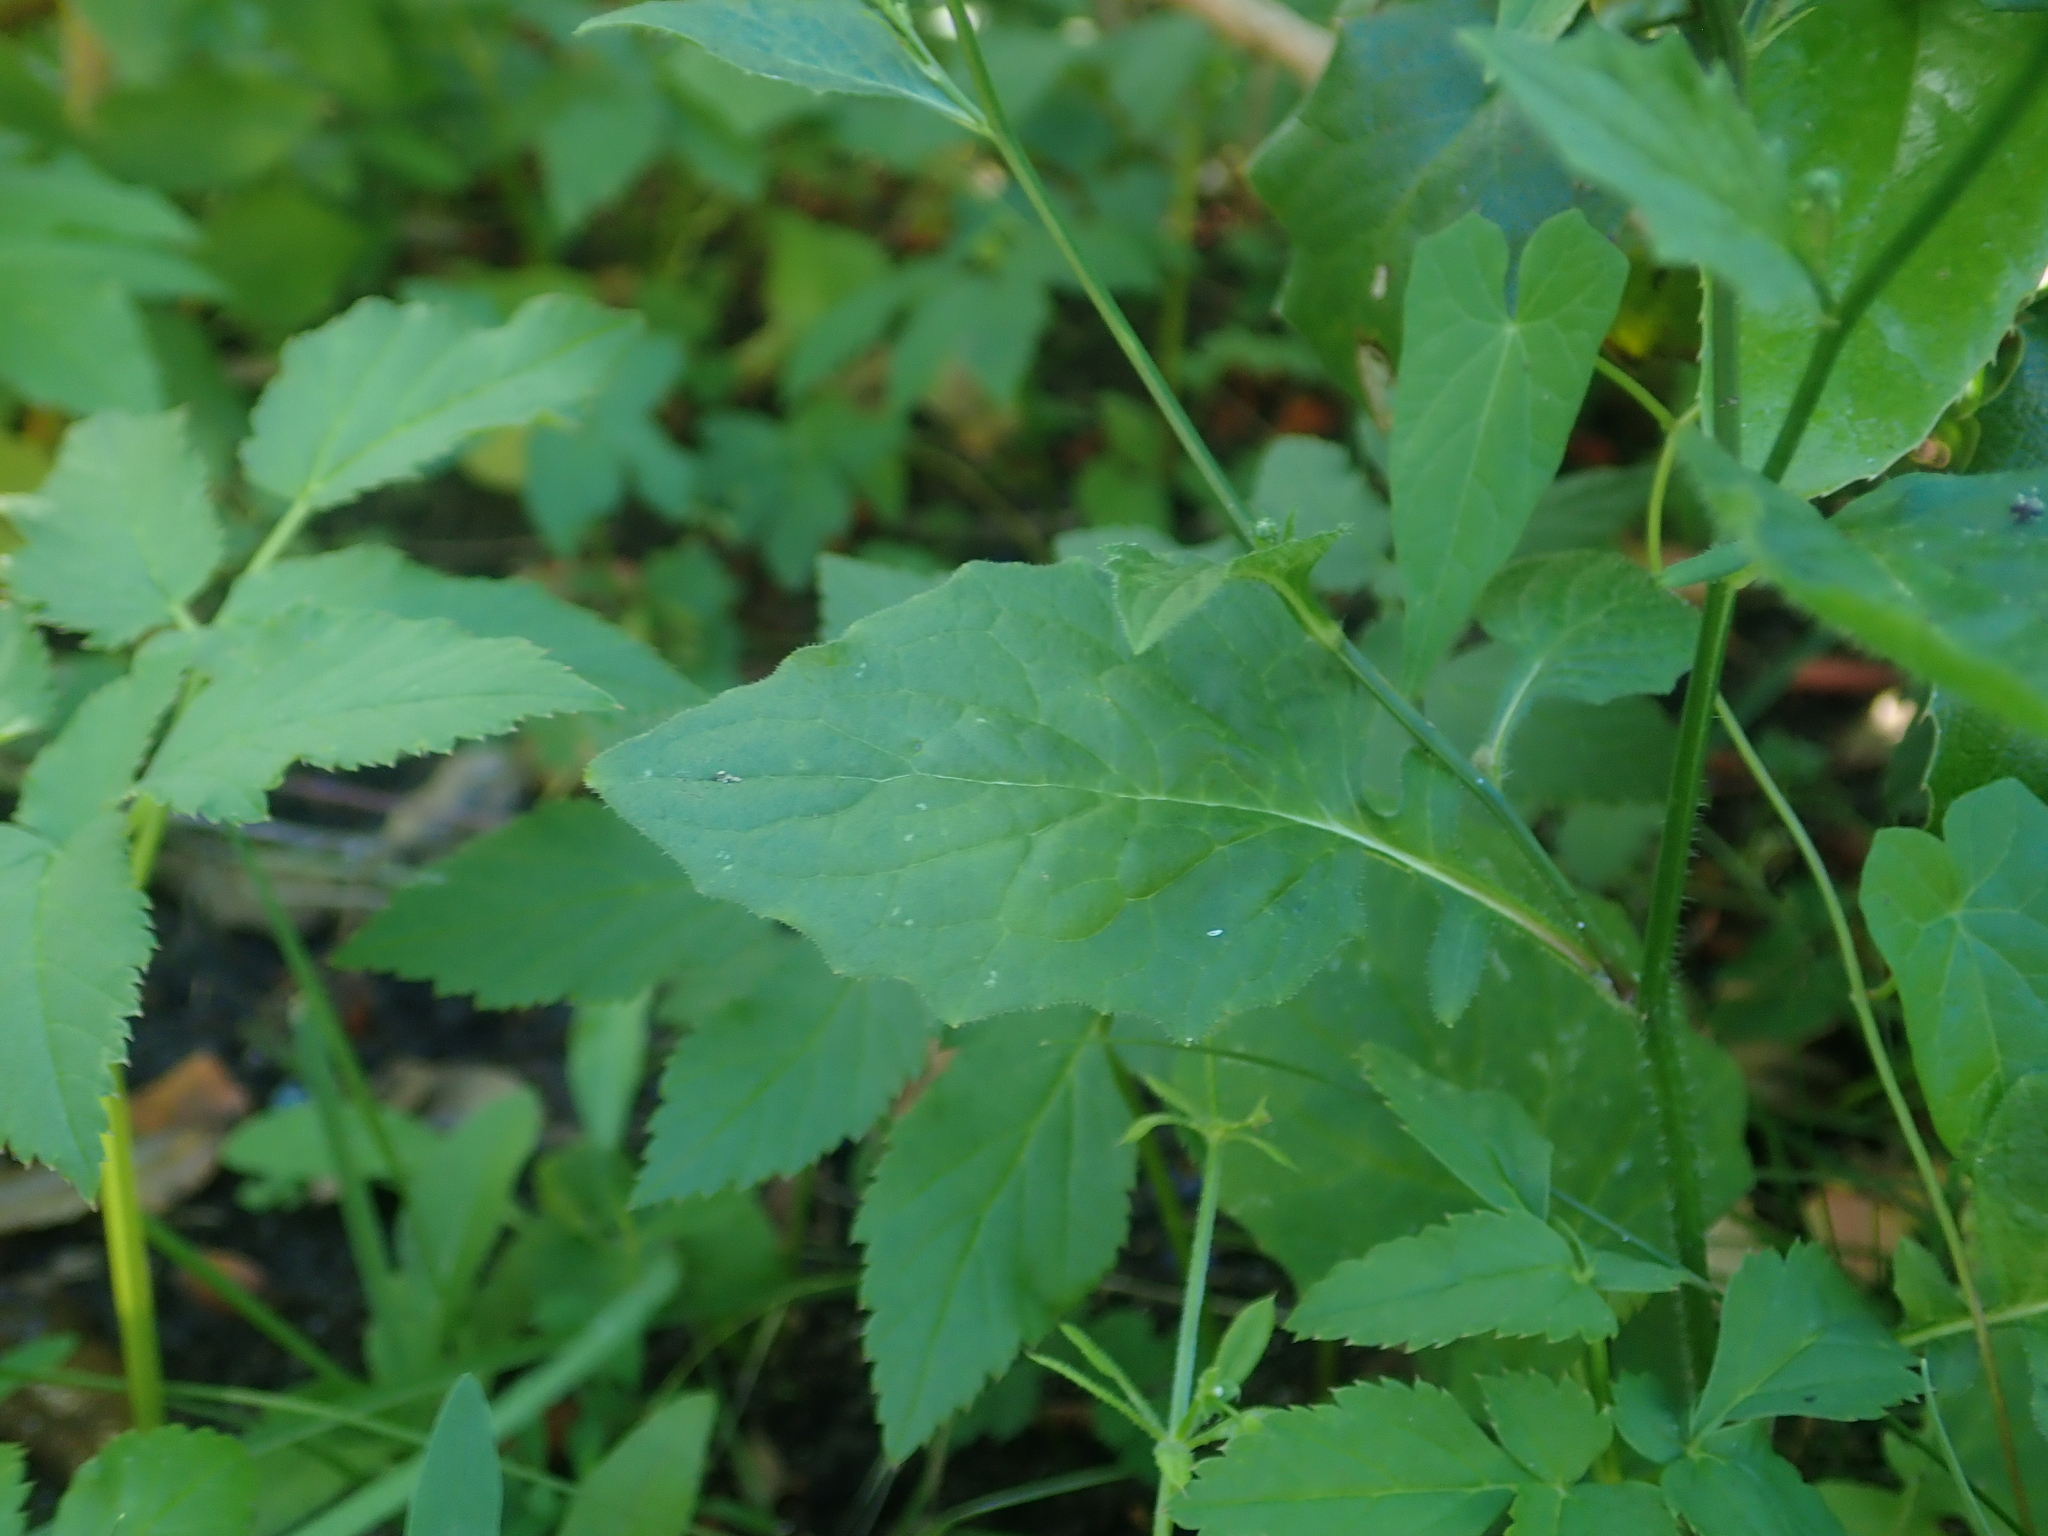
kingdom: Plantae
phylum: Tracheophyta
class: Magnoliopsida
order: Asterales
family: Asteraceae
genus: Lapsana
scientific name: Lapsana communis
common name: Nipplewort
